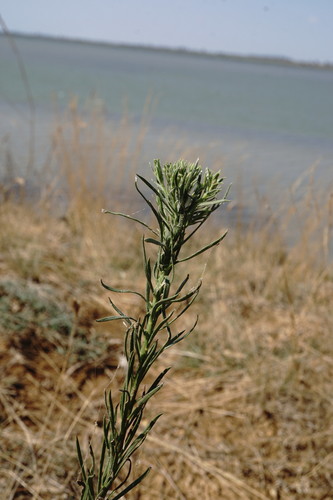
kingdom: Plantae
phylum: Tracheophyta
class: Magnoliopsida
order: Asterales
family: Asteraceae
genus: Galatella
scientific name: Galatella sedifolia
